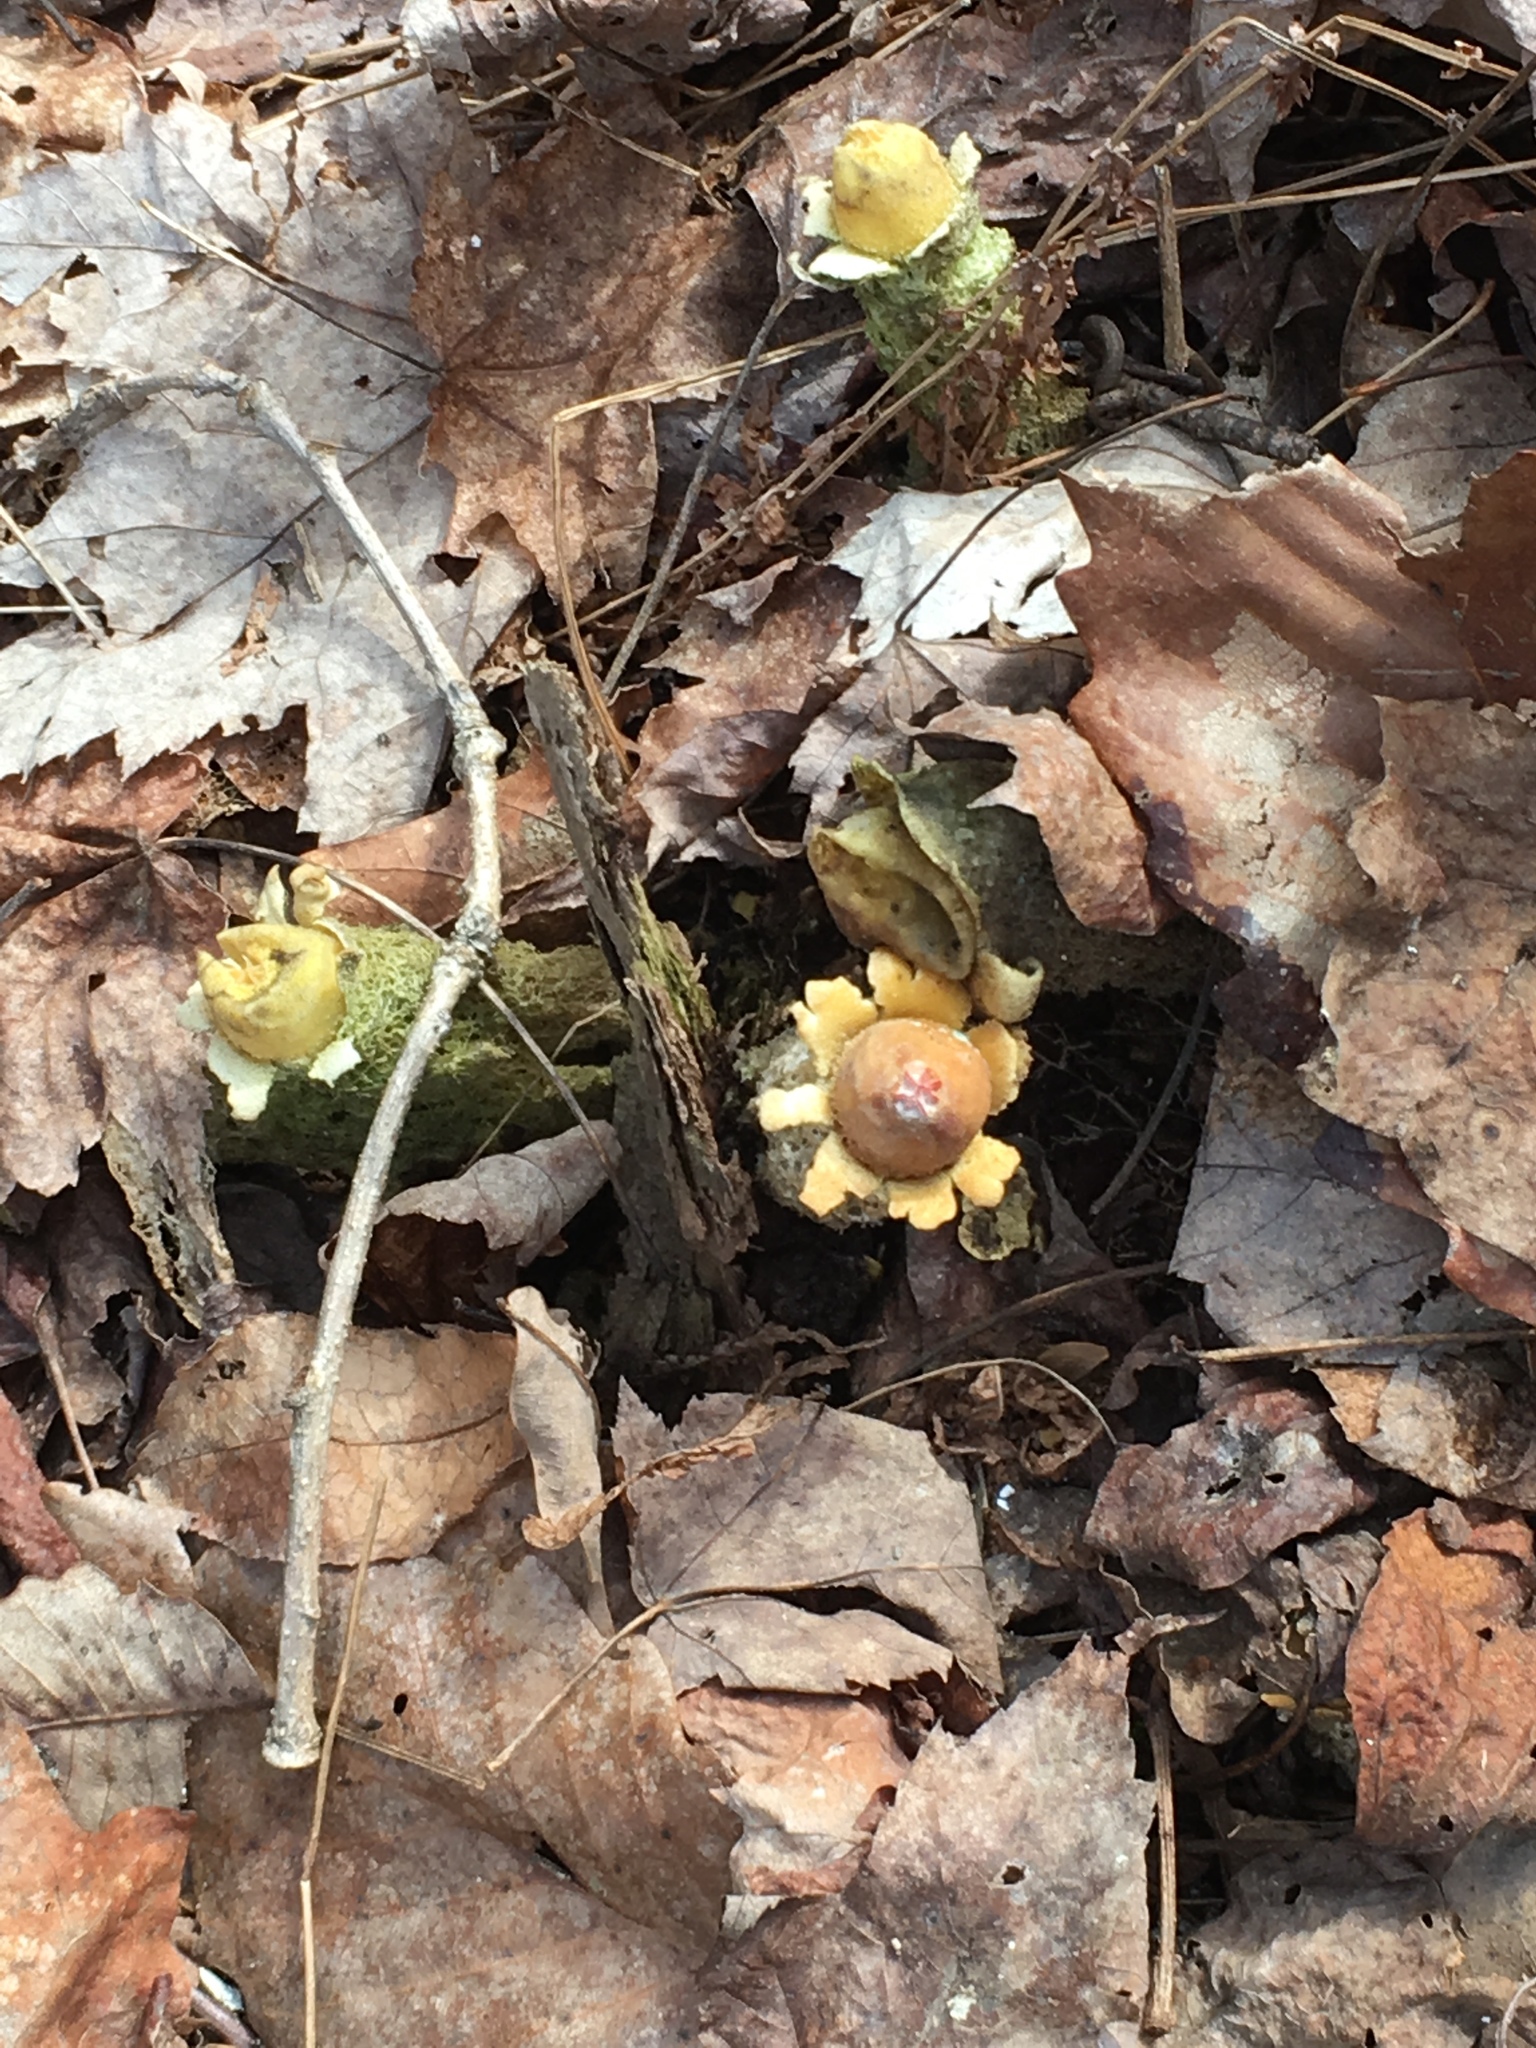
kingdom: Fungi
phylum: Basidiomycota
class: Agaricomycetes
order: Boletales
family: Calostomataceae
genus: Calostoma
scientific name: Calostoma lutescens
